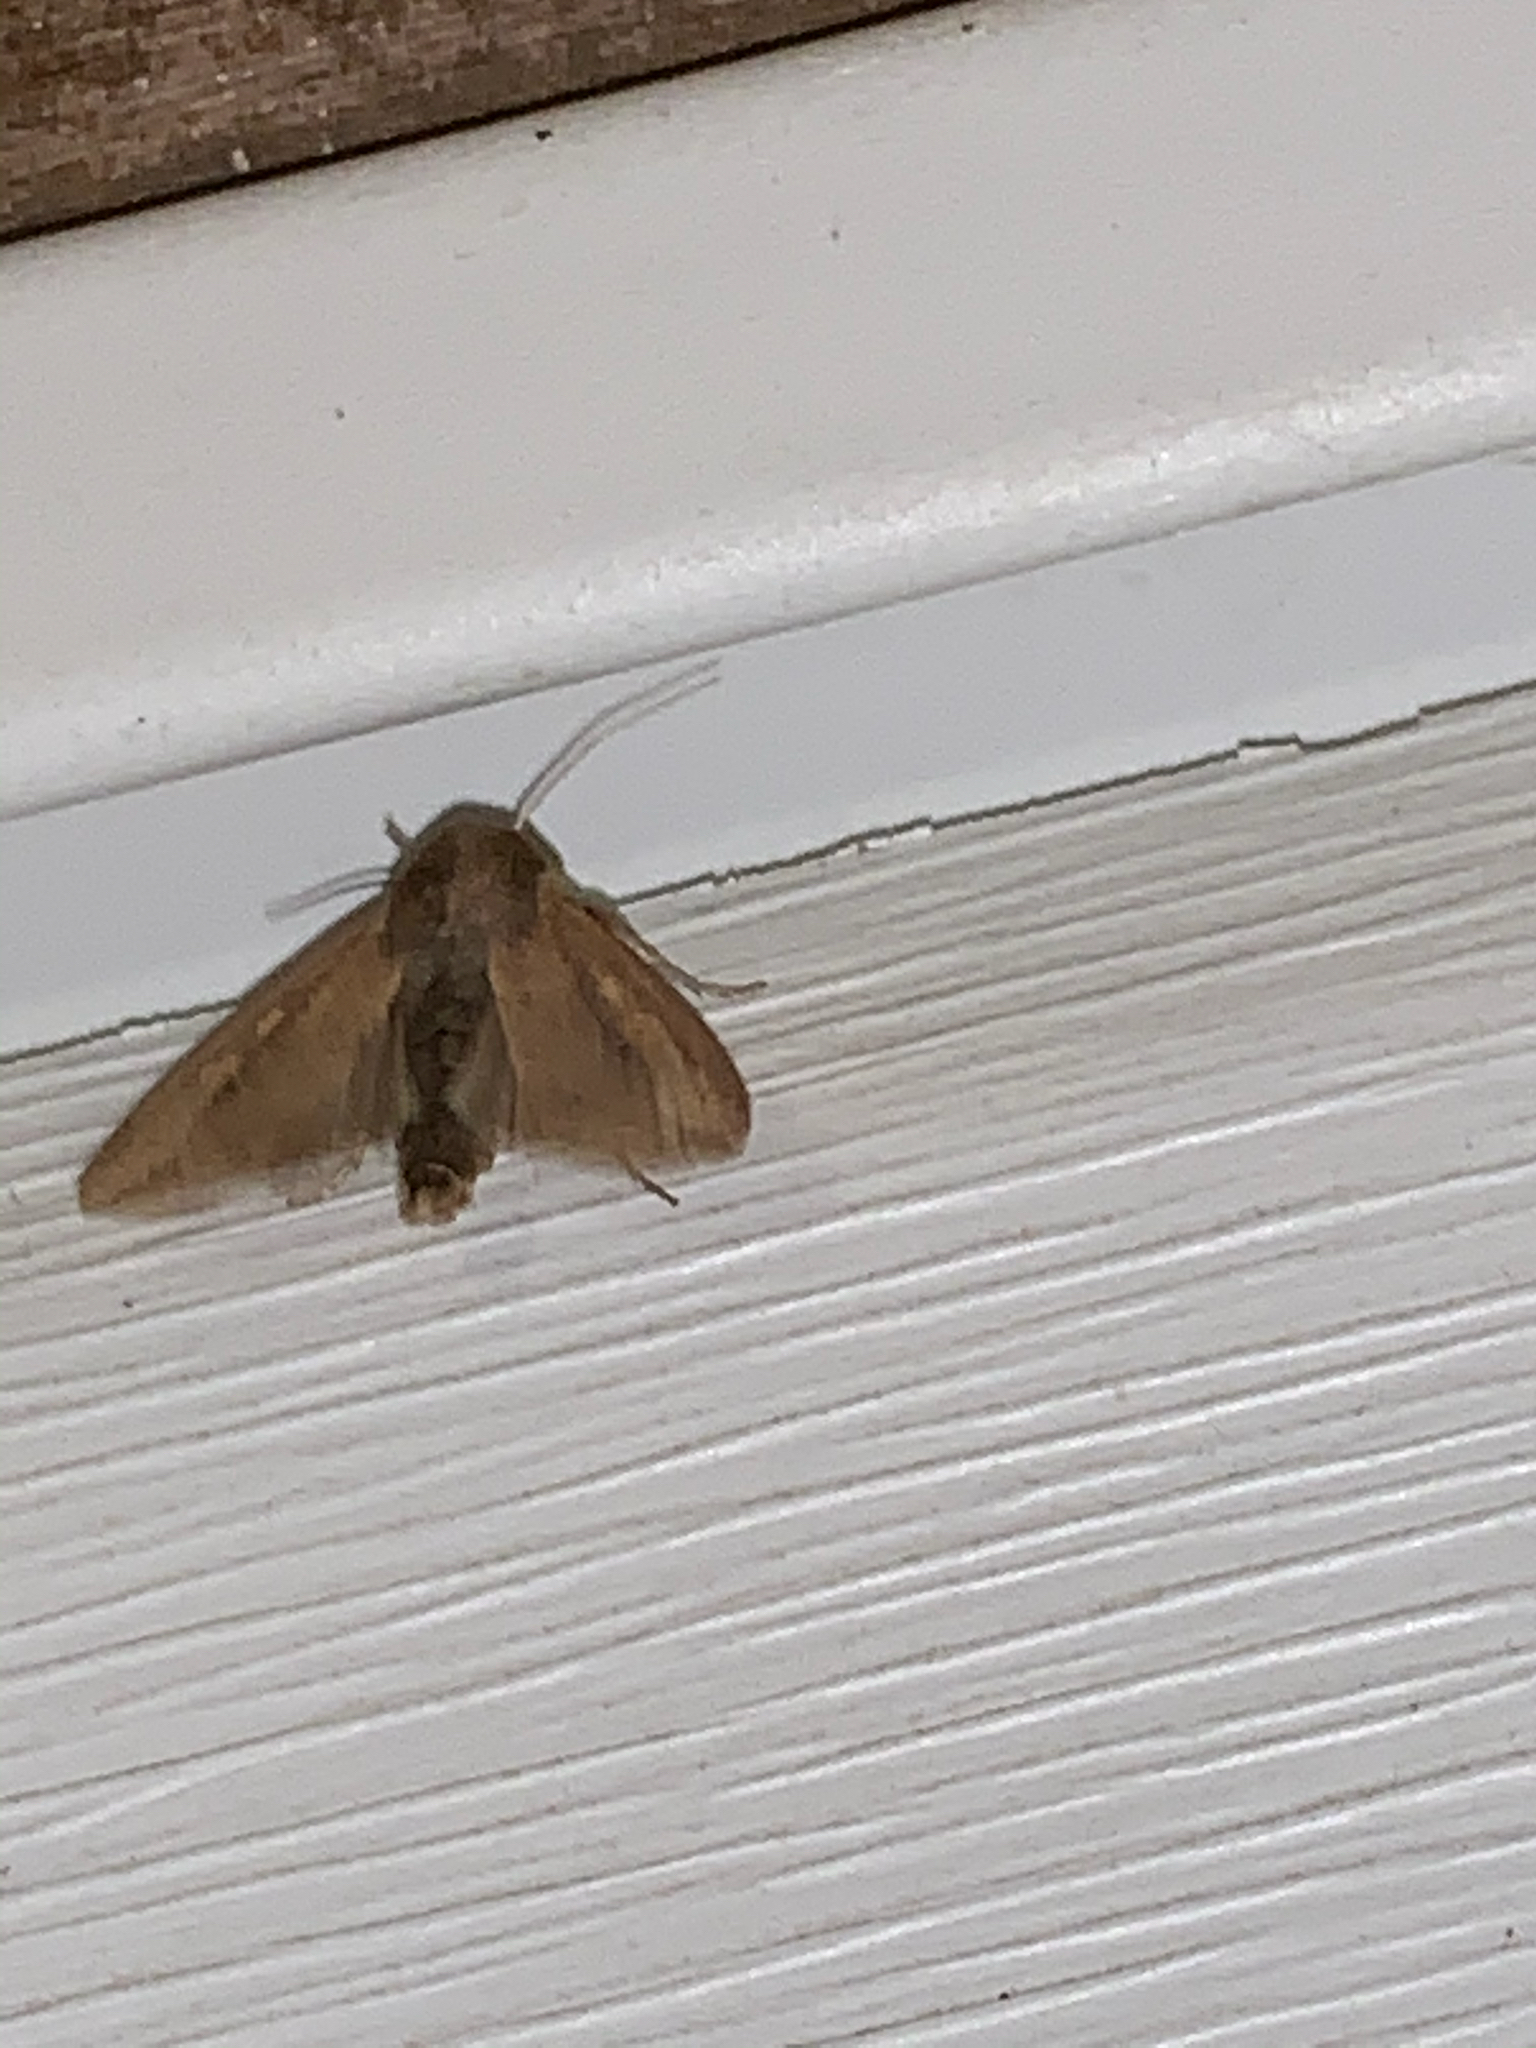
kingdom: Animalia
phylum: Arthropoda
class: Insecta
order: Lepidoptera
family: Noctuidae
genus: Mythimna
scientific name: Mythimna unipuncta
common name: White-speck
